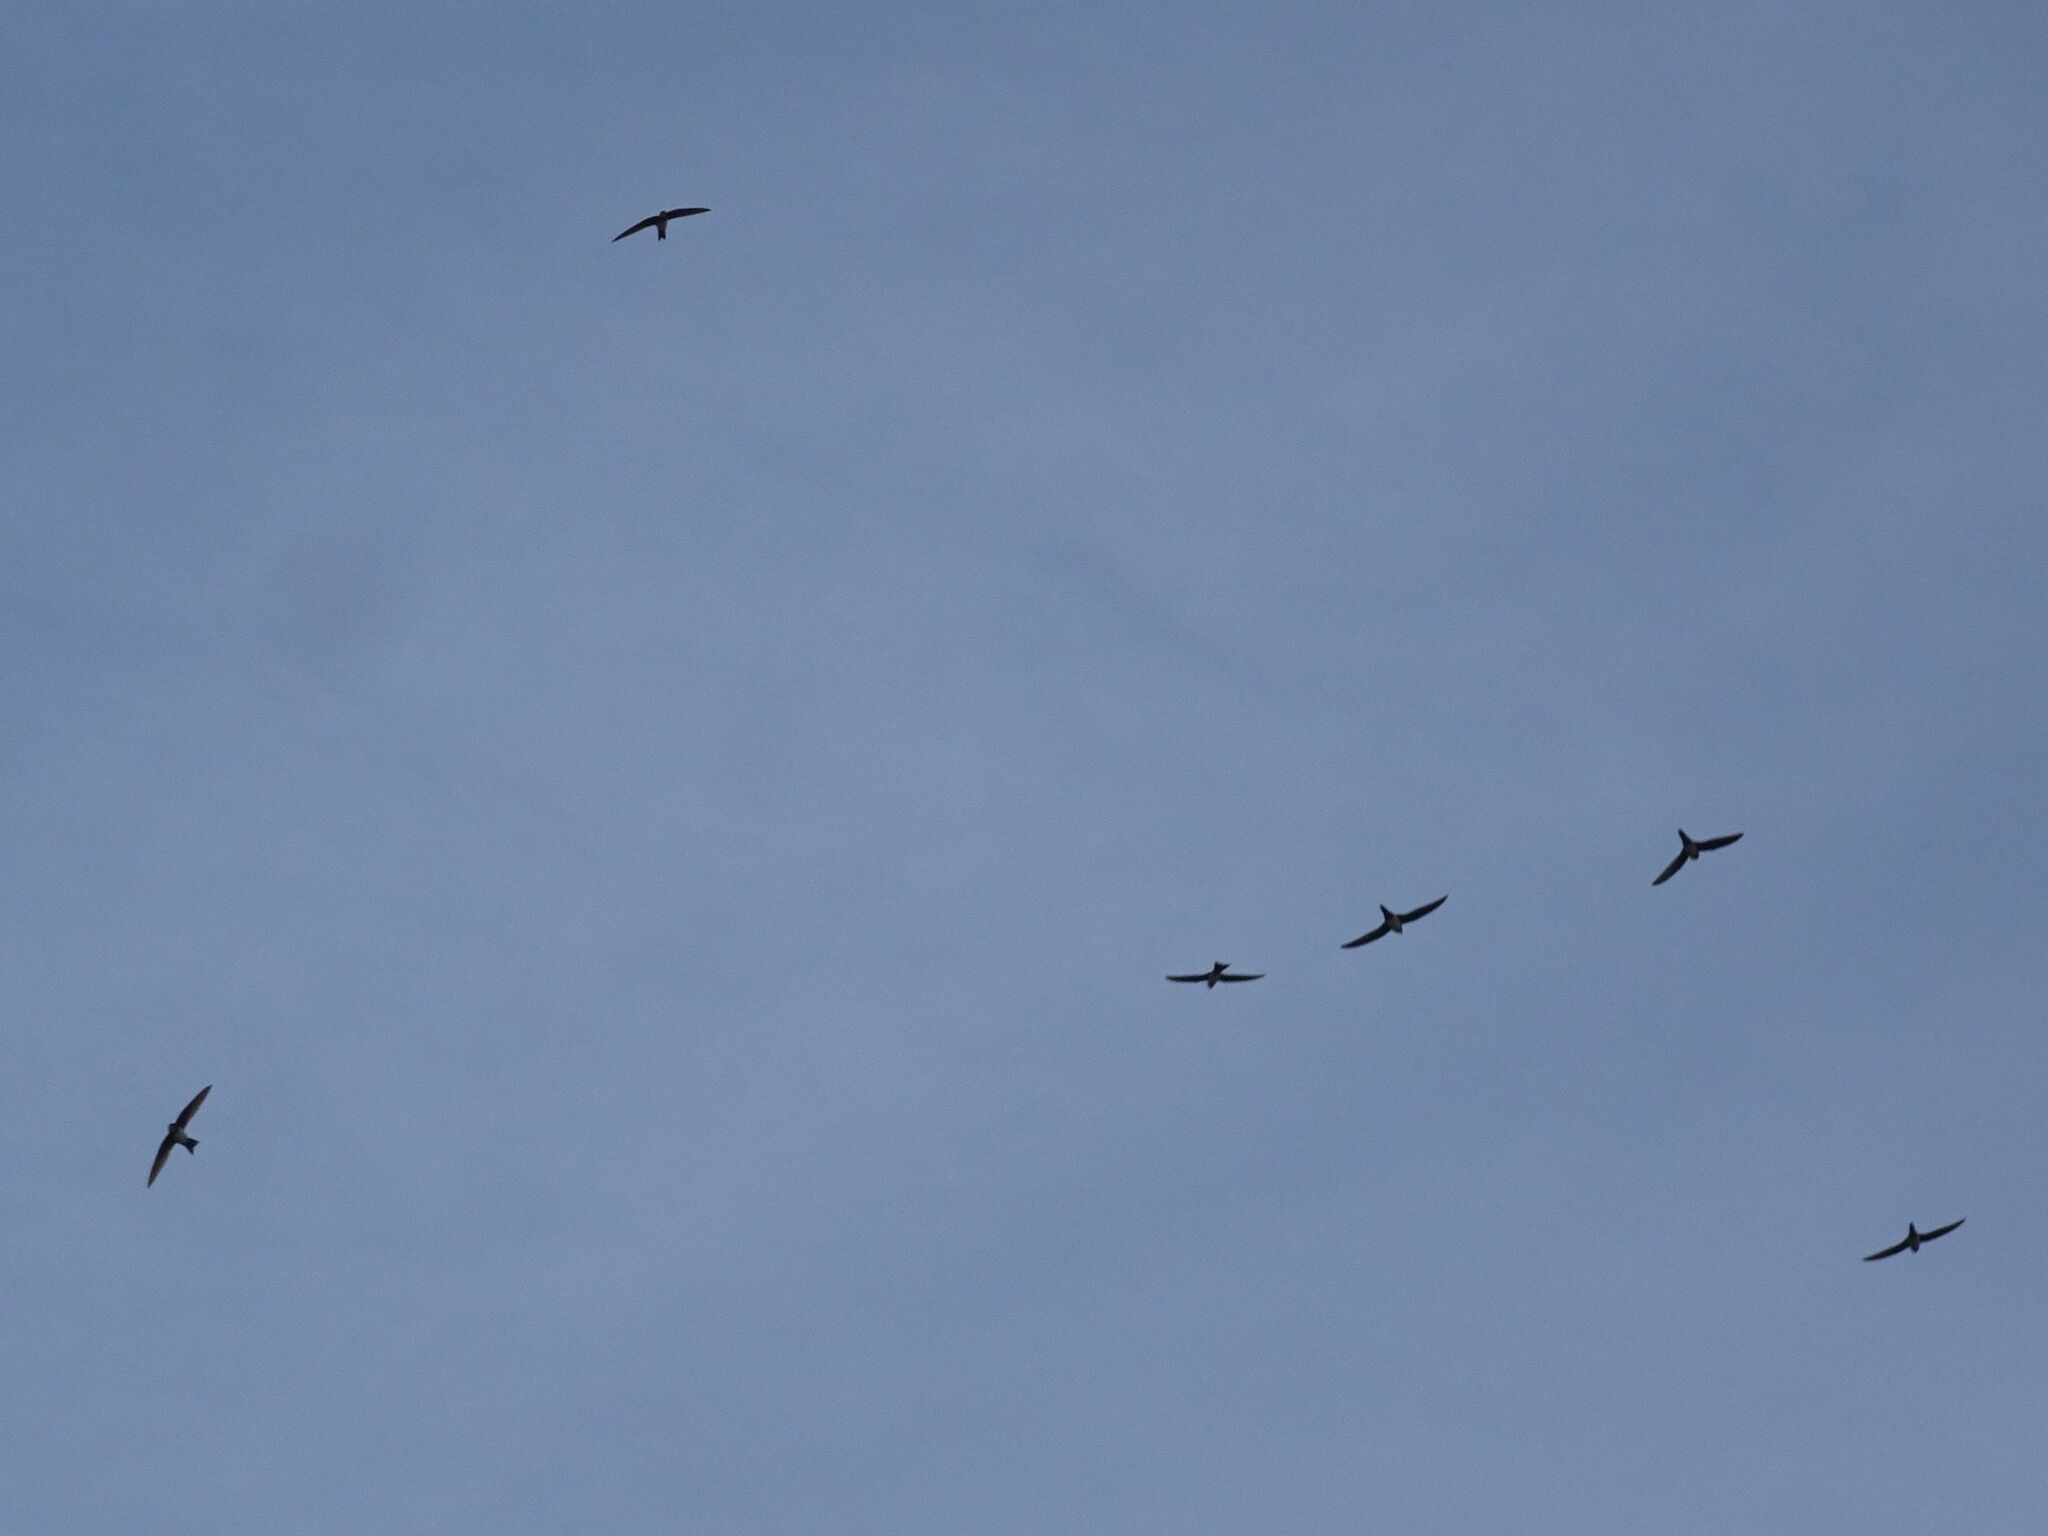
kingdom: Animalia
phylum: Chordata
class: Aves
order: Apodiformes
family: Apodidae
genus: Tachymarptis
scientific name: Tachymarptis melba
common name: Alpine swift
